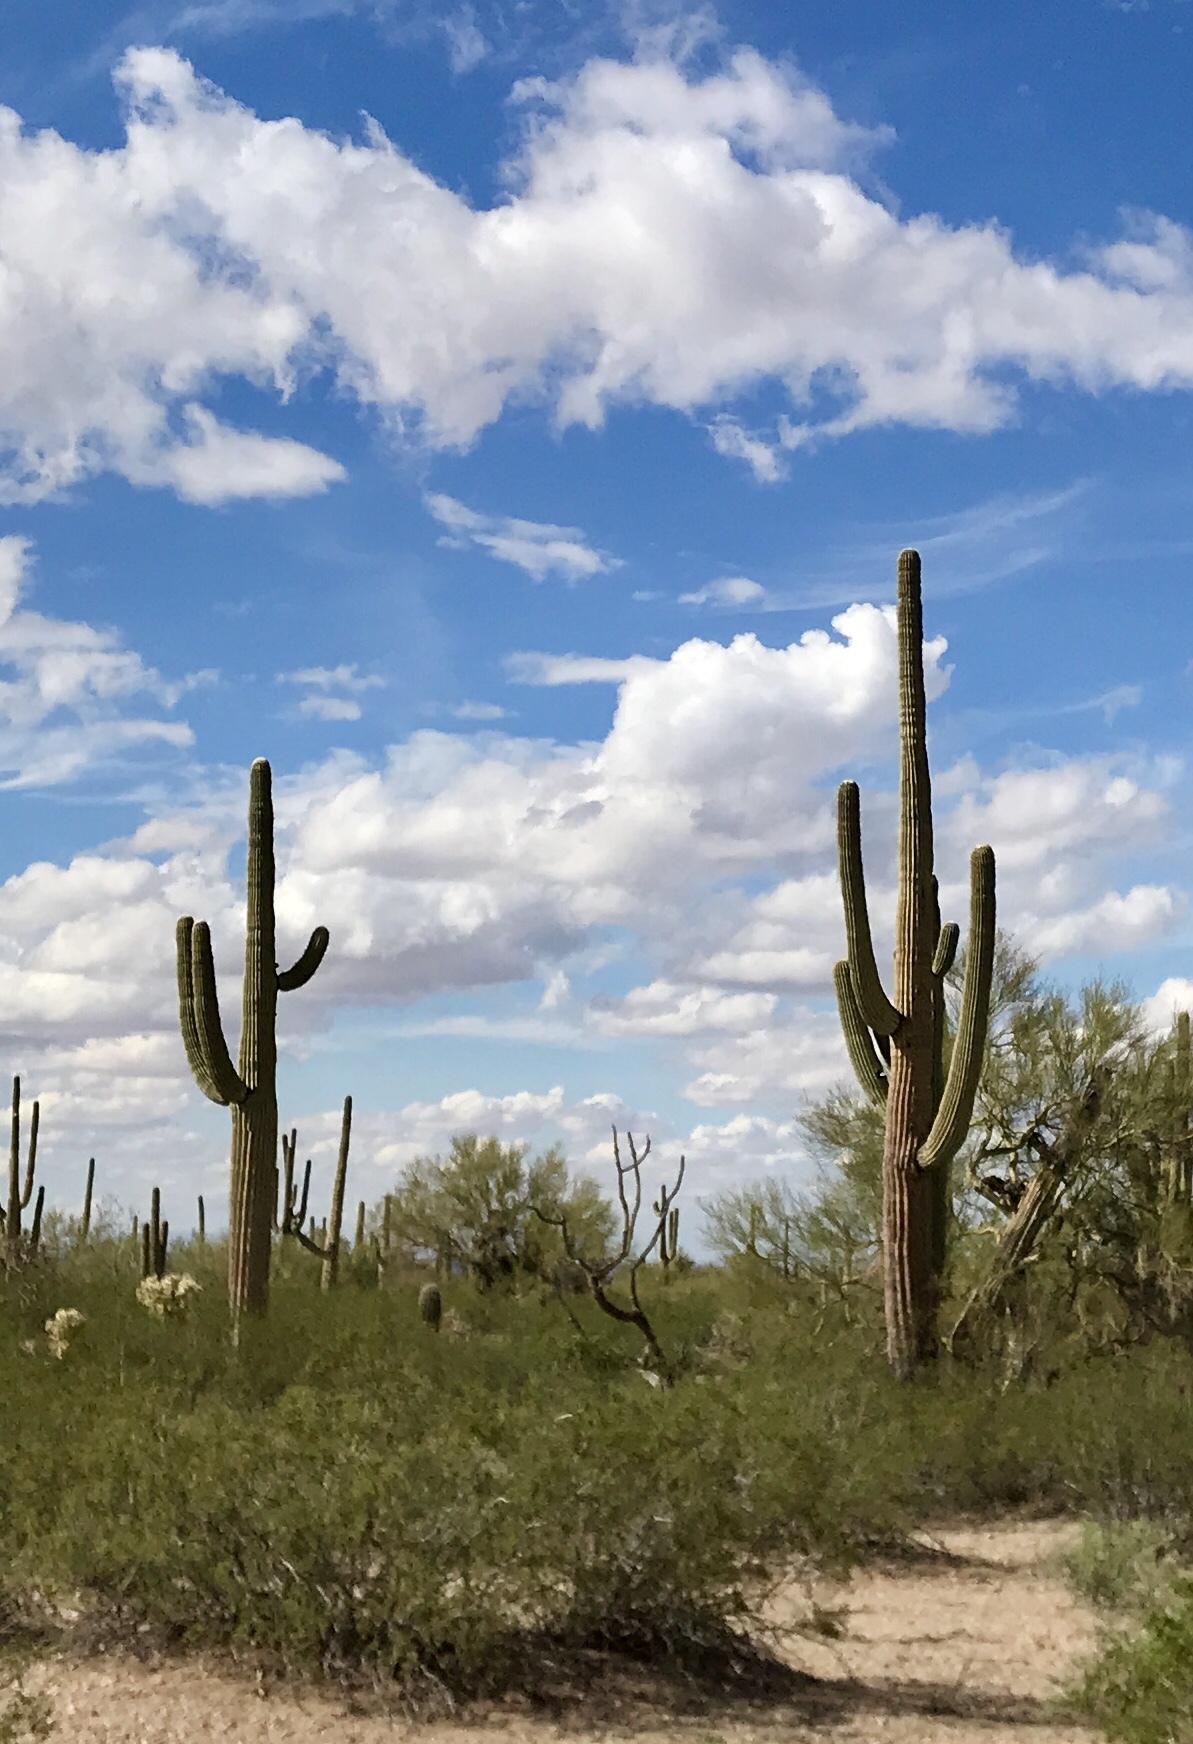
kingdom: Plantae
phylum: Tracheophyta
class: Magnoliopsida
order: Caryophyllales
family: Cactaceae
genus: Carnegiea
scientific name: Carnegiea gigantea
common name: Saguaro
